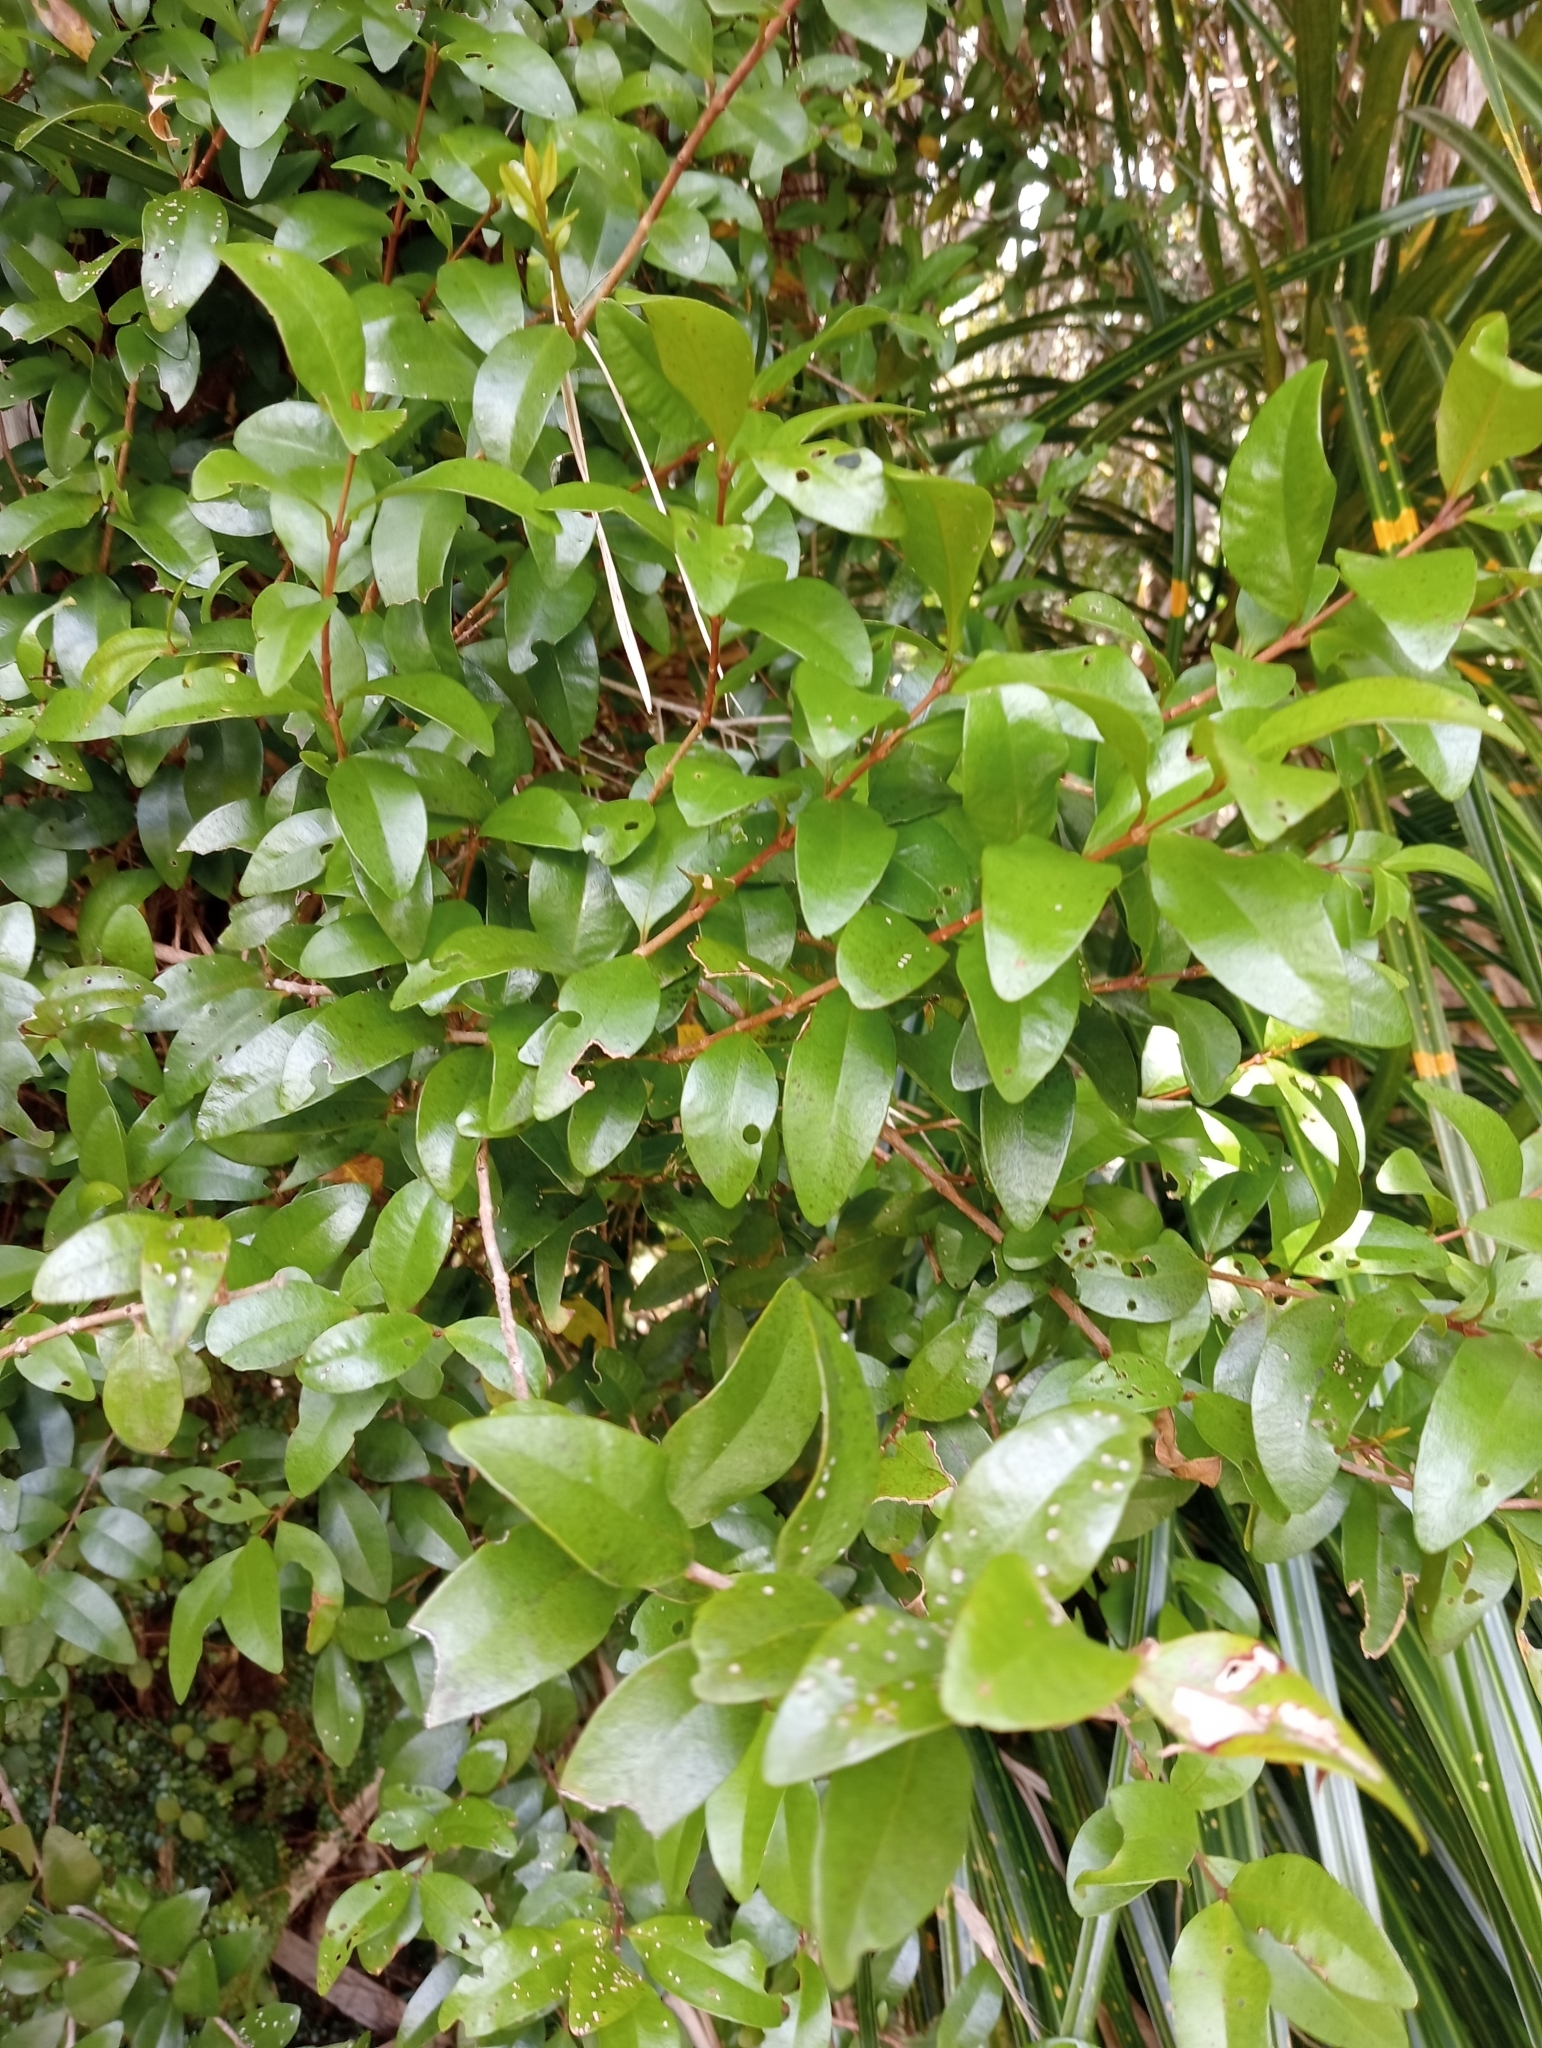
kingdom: Plantae
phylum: Tracheophyta
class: Magnoliopsida
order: Myrtales
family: Myrtaceae
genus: Metrosideros
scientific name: Metrosideros fulgens
